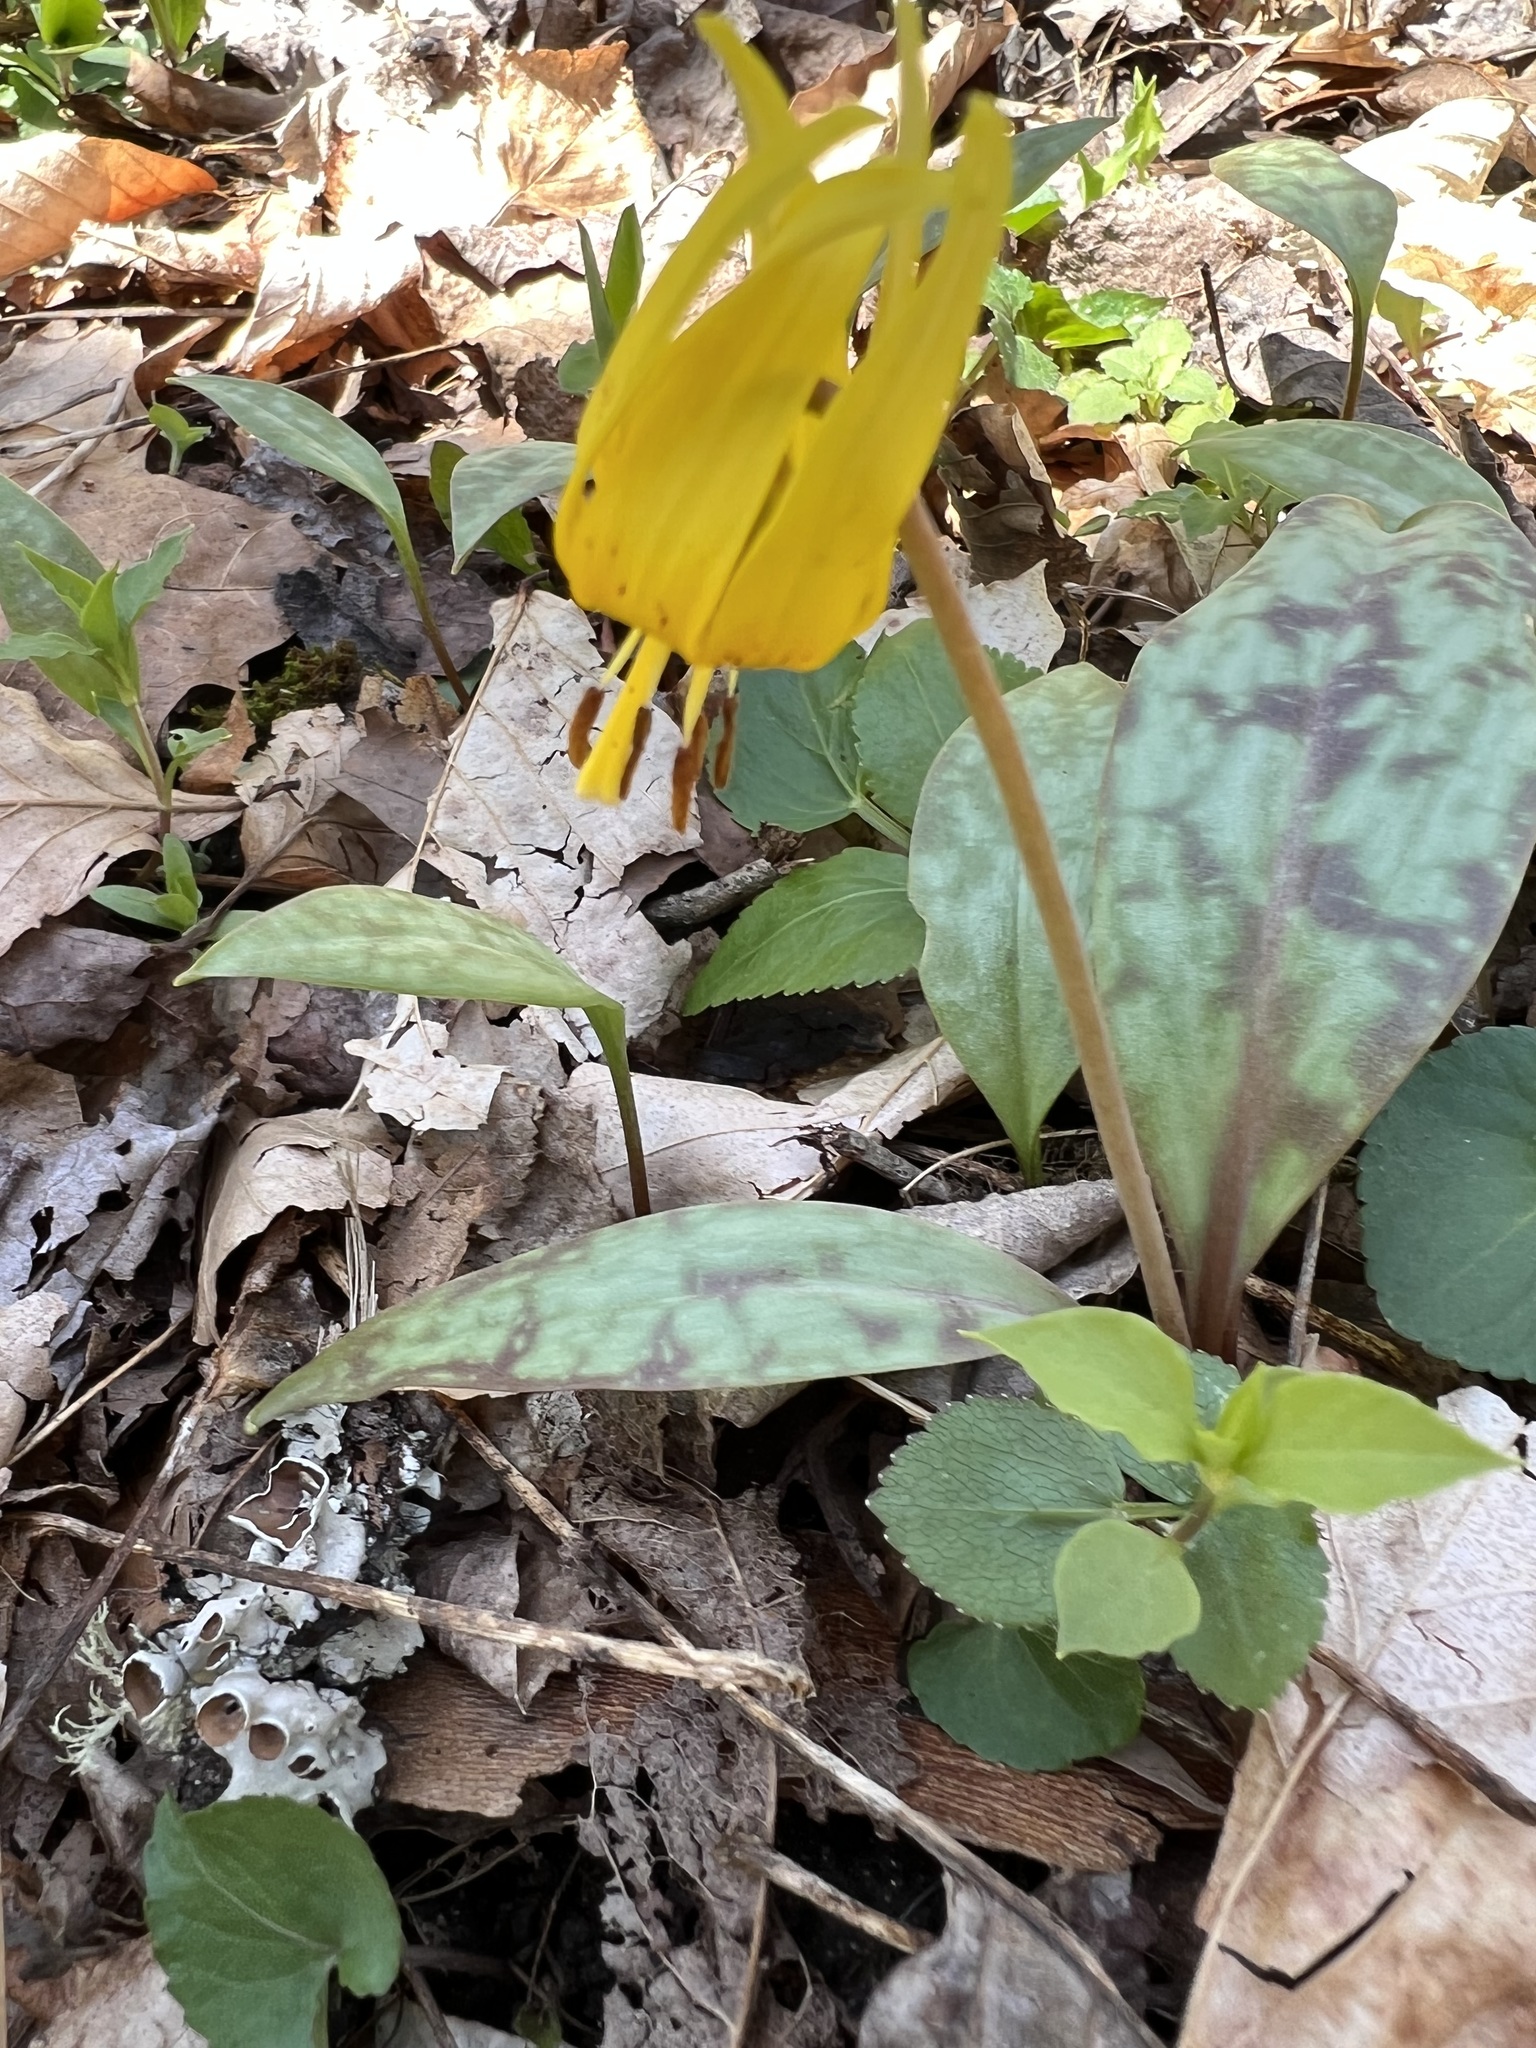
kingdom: Plantae
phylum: Tracheophyta
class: Liliopsida
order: Liliales
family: Liliaceae
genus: Erythronium
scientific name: Erythronium americanum
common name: Yellow adder's-tongue
